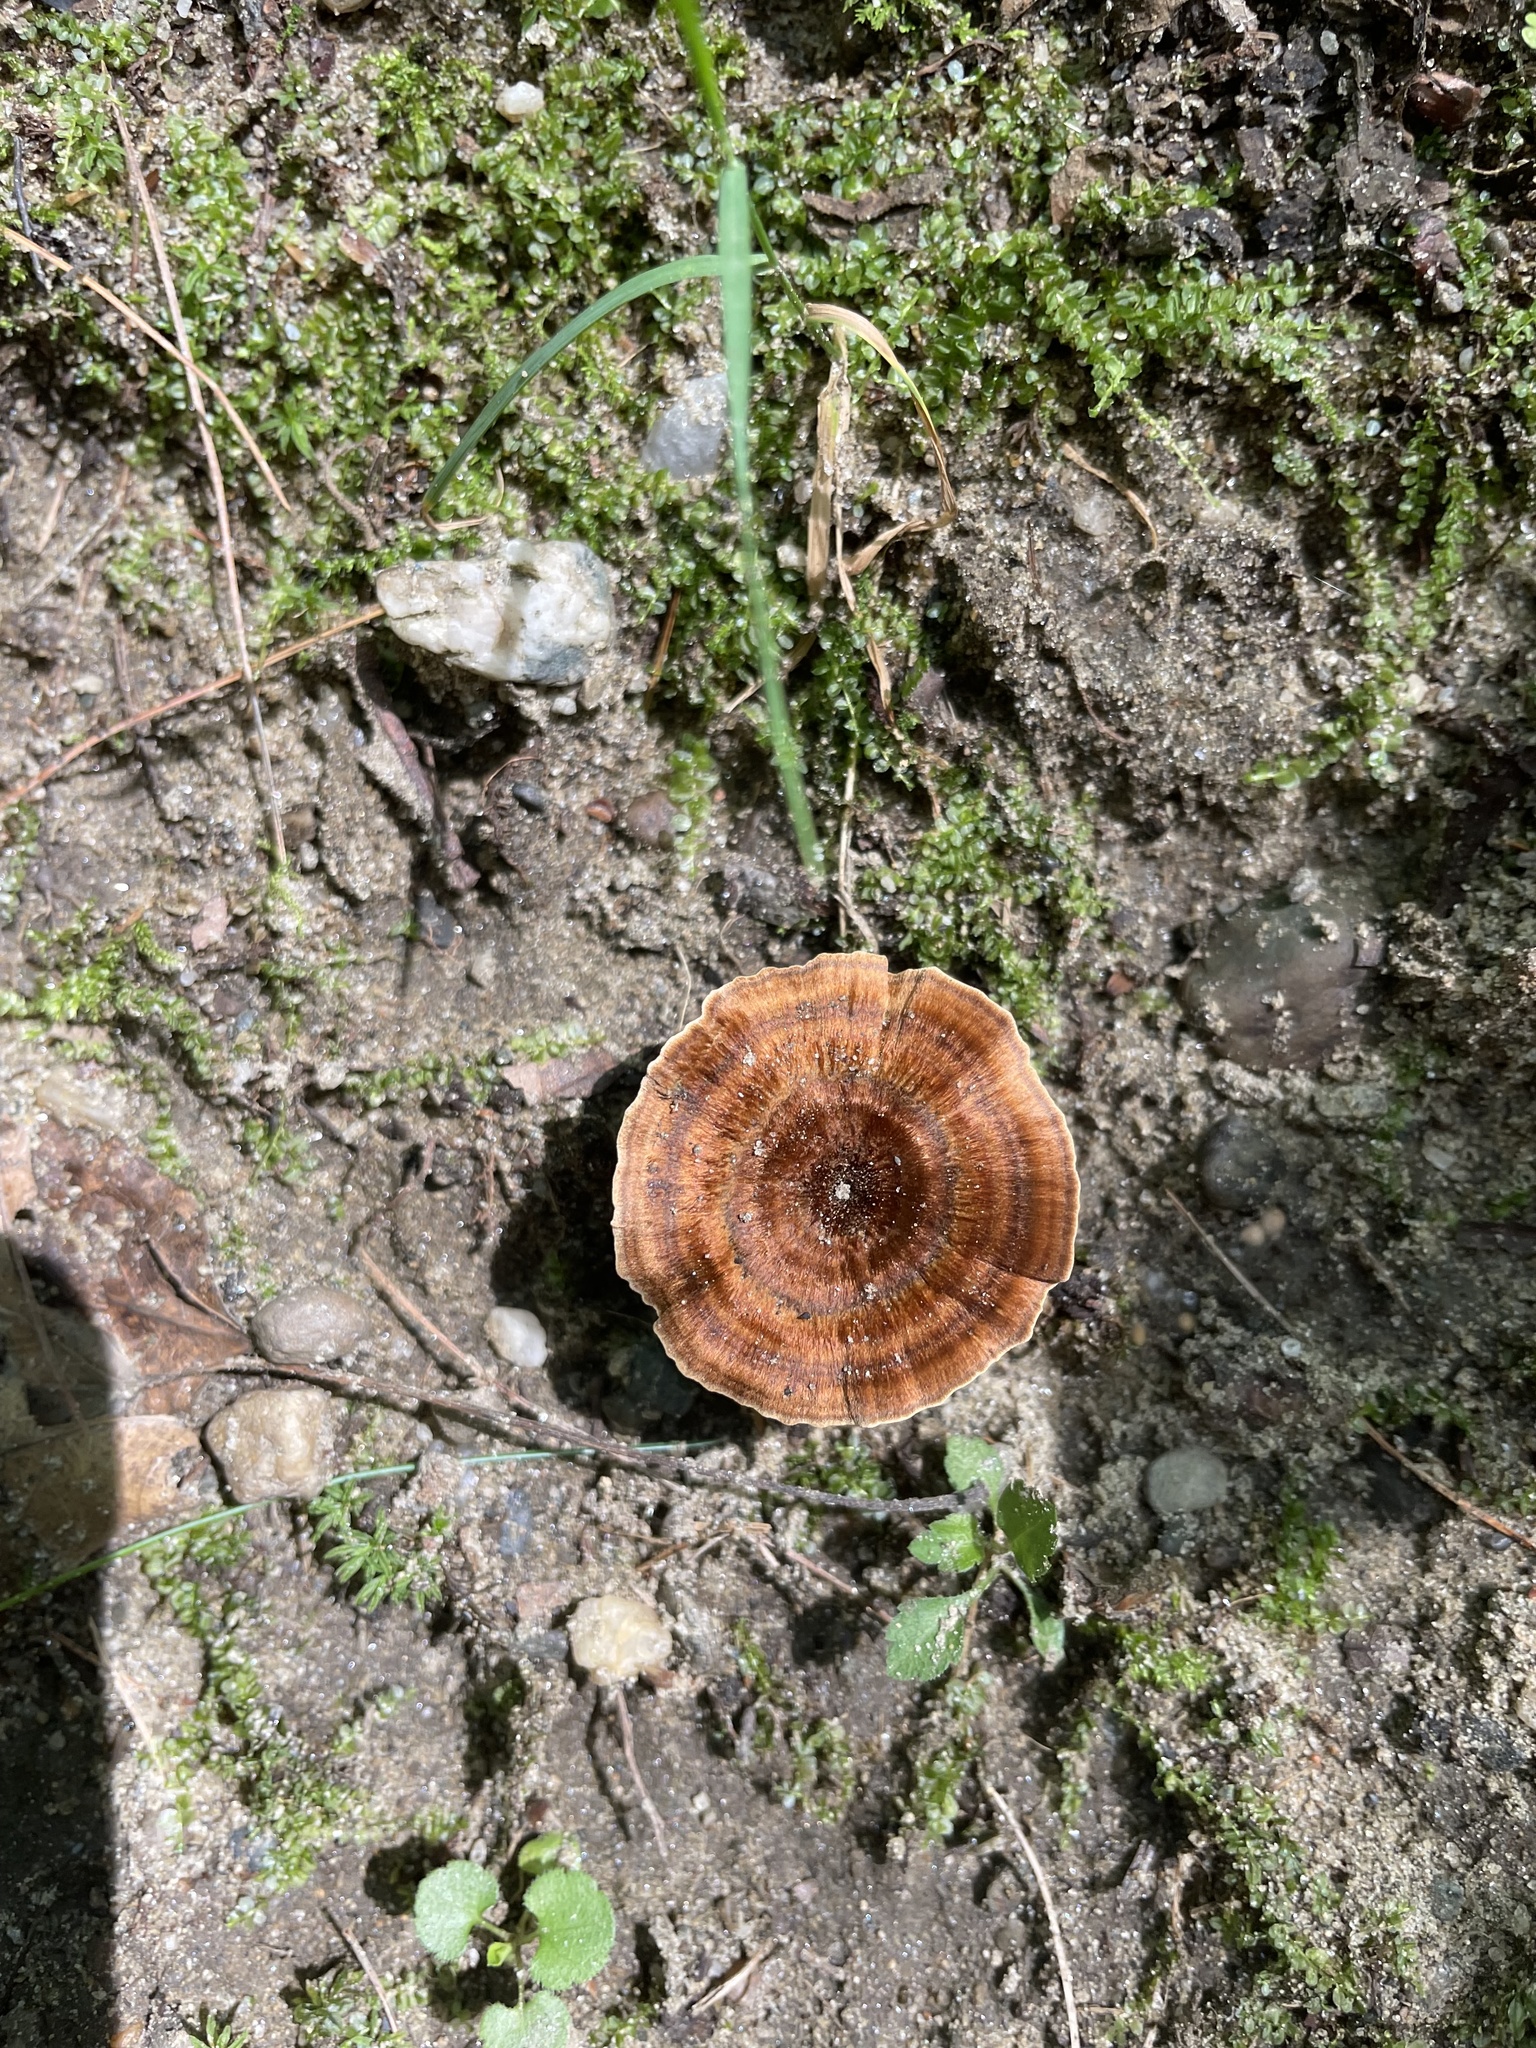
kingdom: Fungi
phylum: Basidiomycota
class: Agaricomycetes
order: Hymenochaetales
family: Hymenochaetaceae
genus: Coltricia
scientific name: Coltricia cinnamomea
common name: Shiny cinnamon polypore
